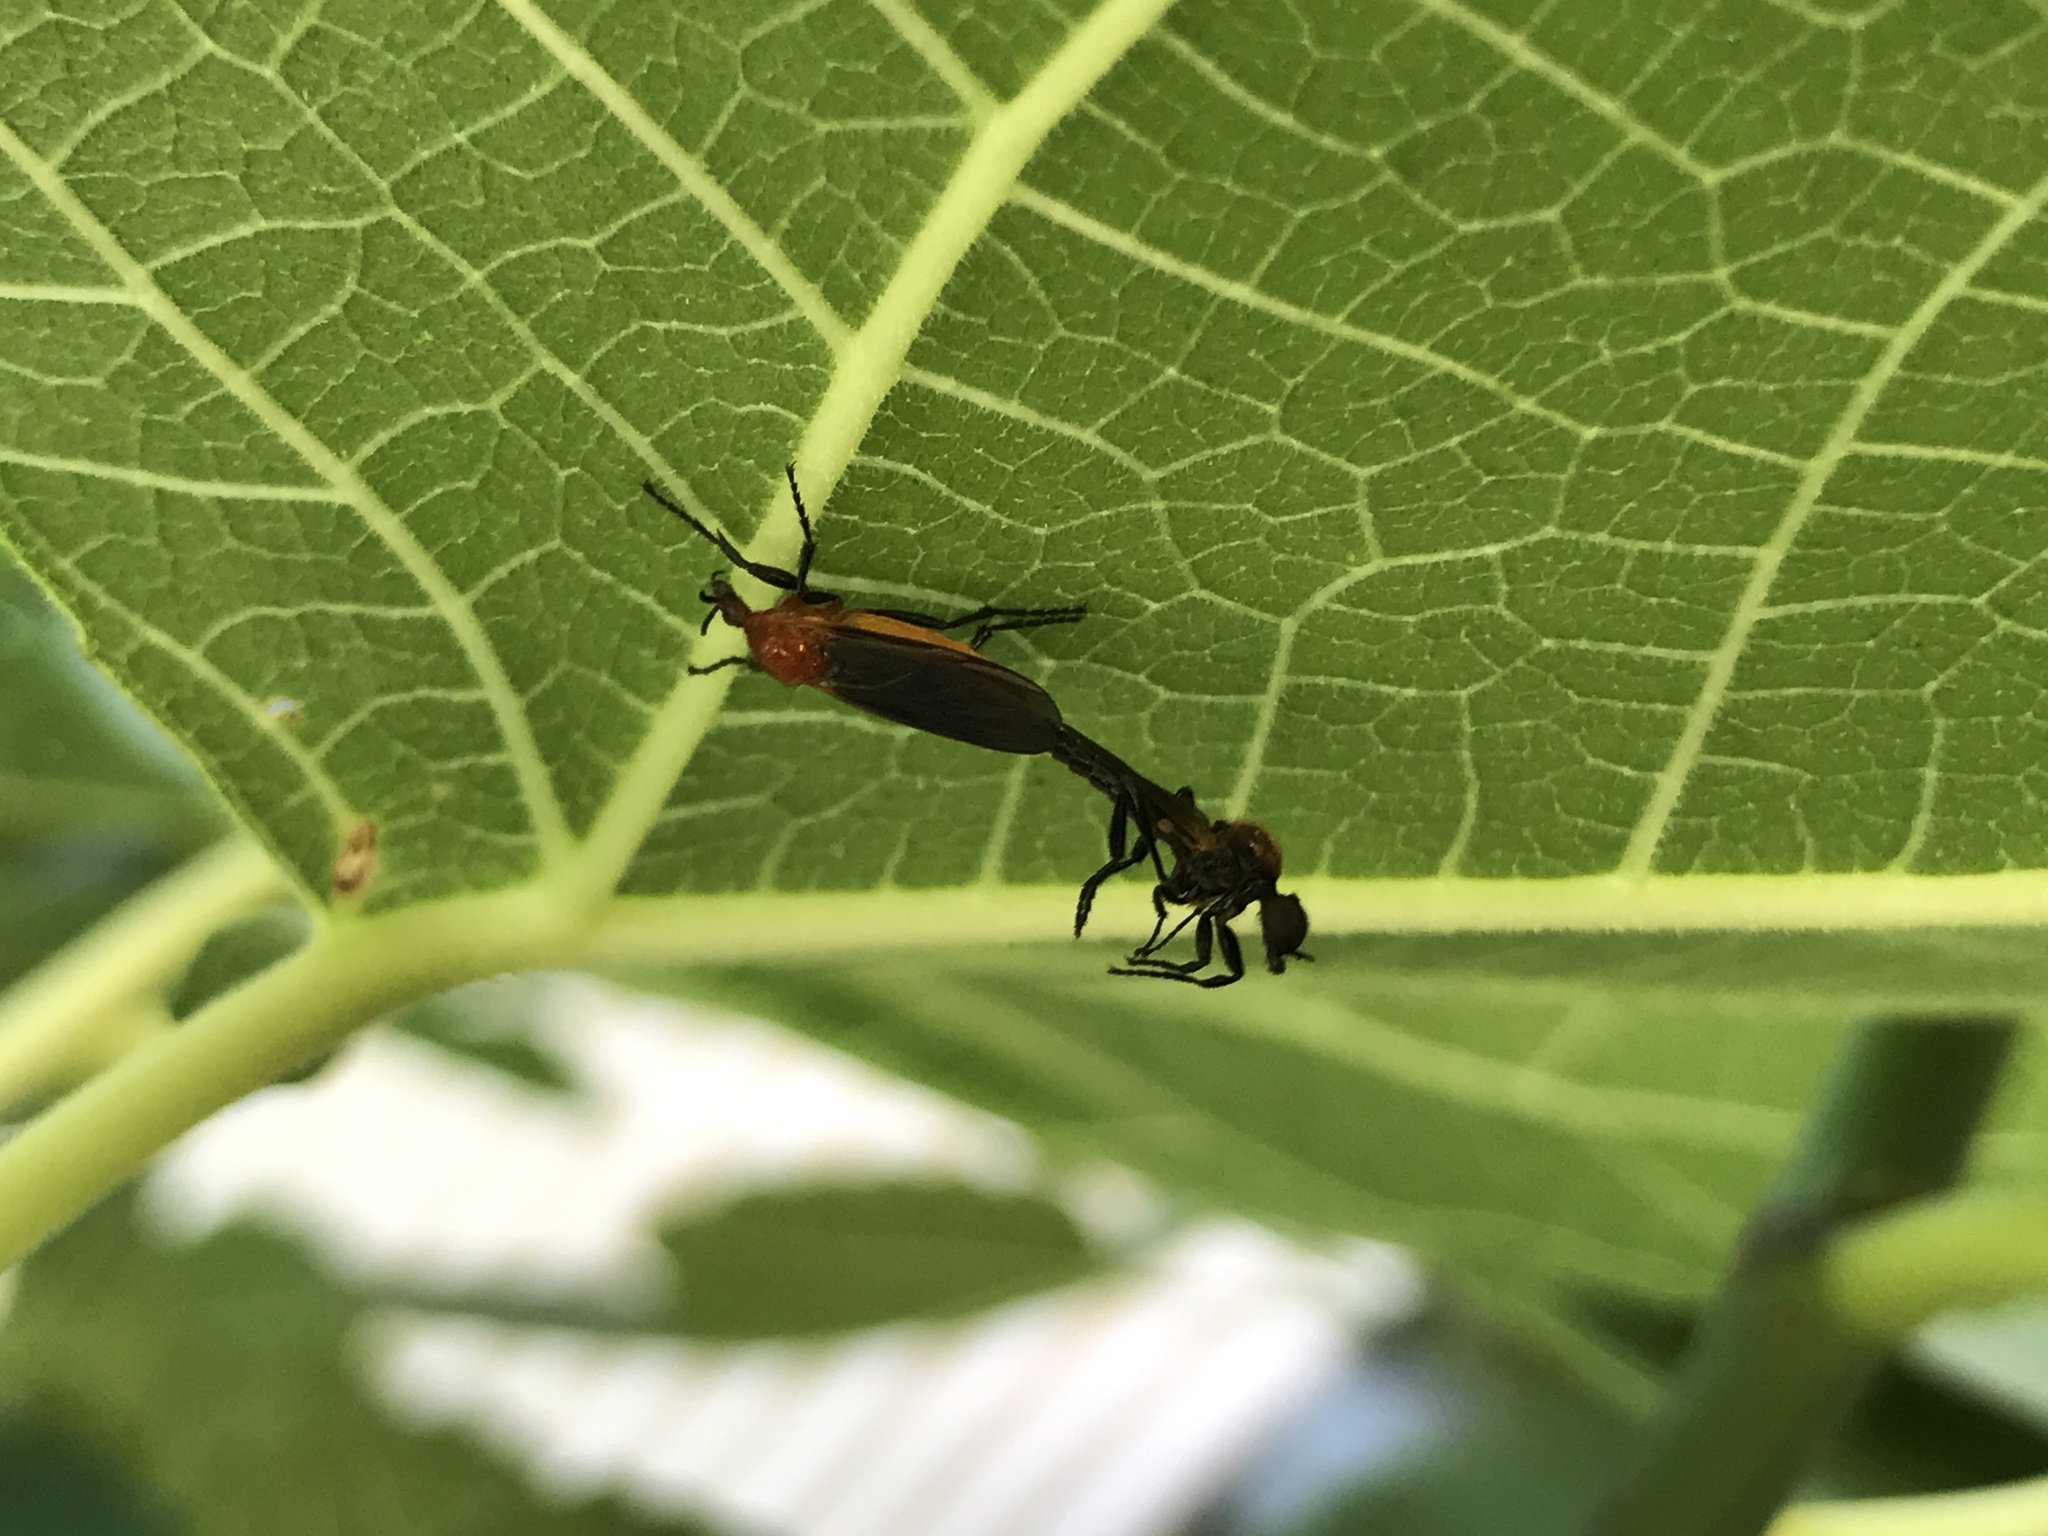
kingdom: Animalia
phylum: Arthropoda
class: Insecta
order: Diptera
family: Bibionidae
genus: Bibio
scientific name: Bibio imitator
